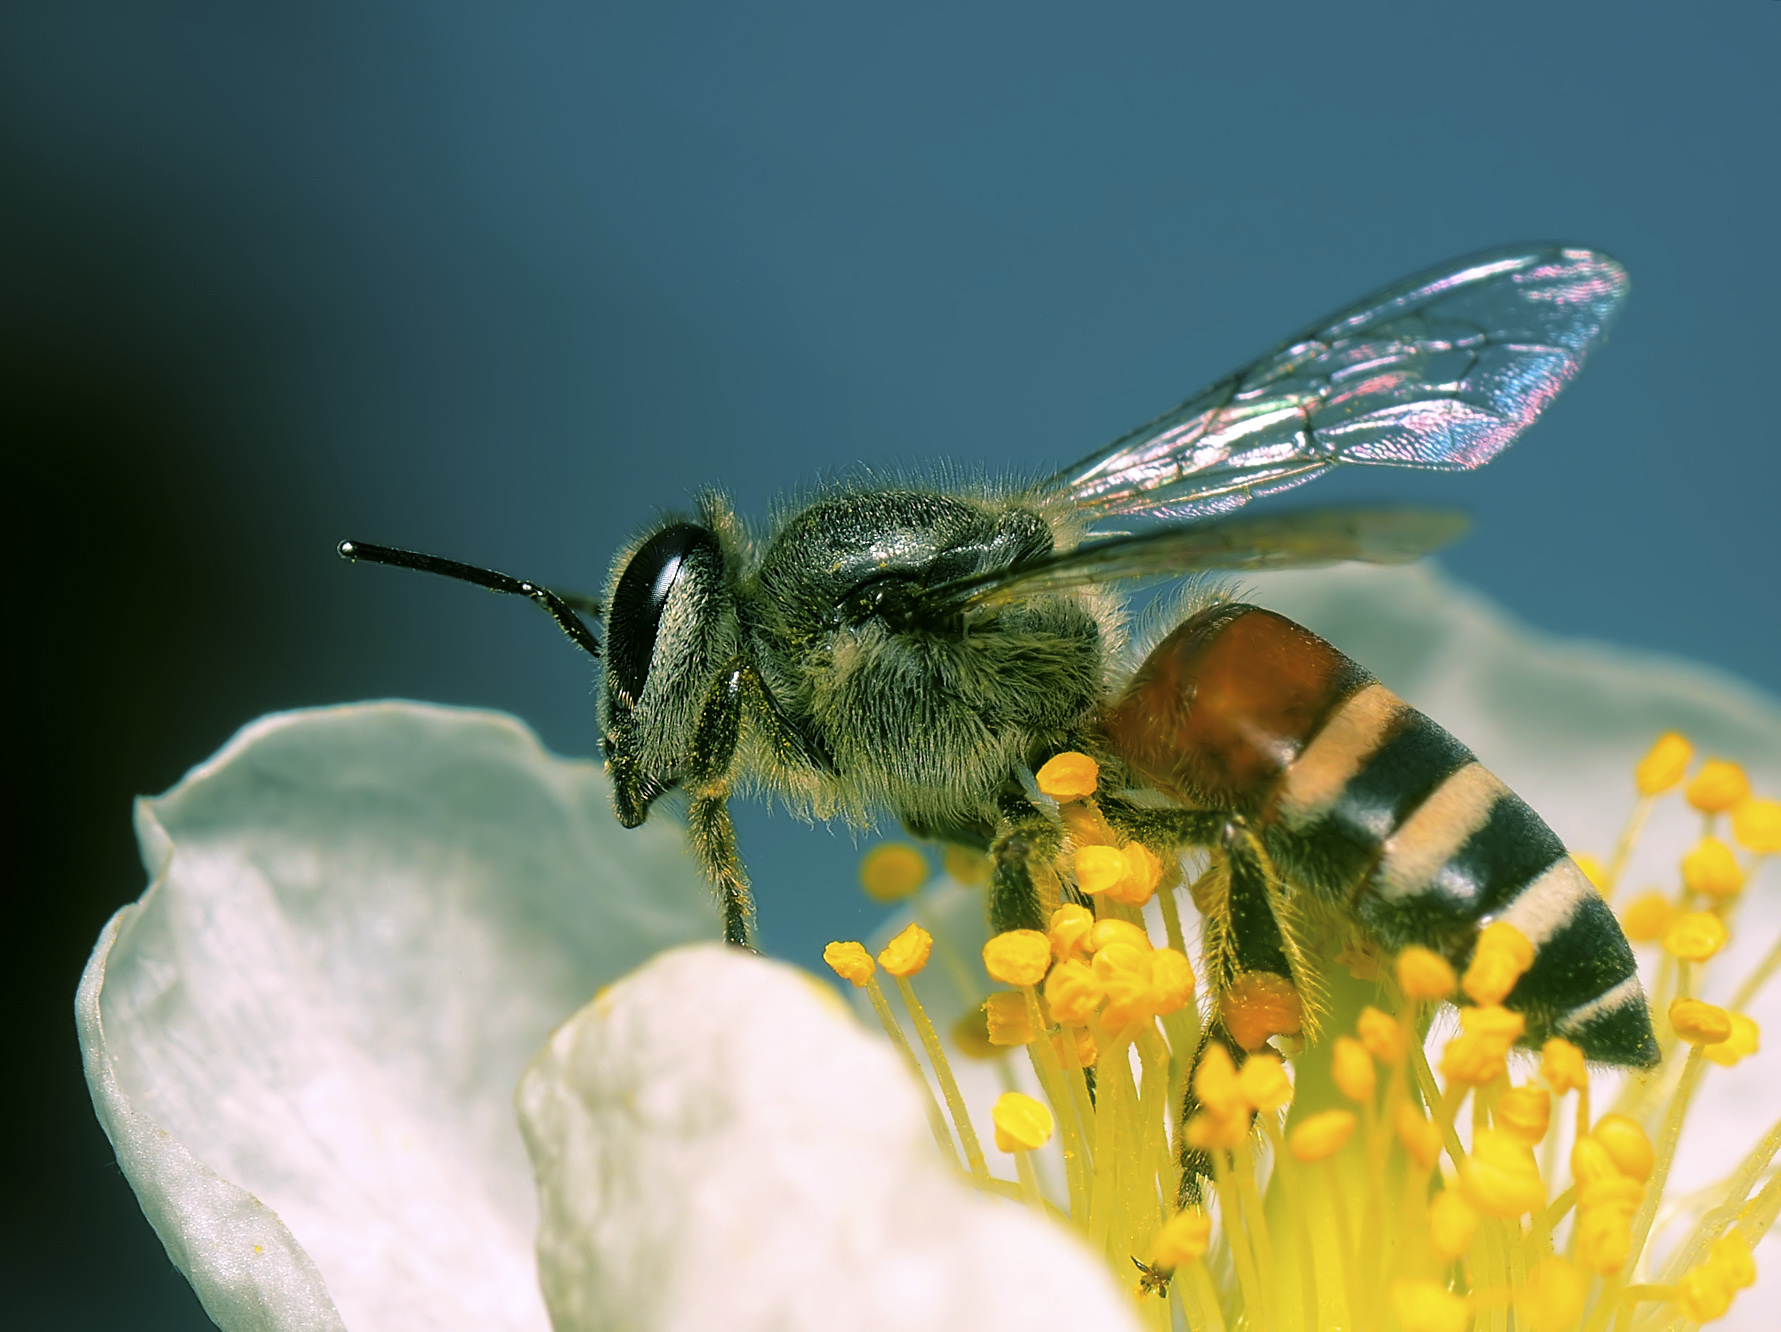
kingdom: Animalia
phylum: Arthropoda
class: Insecta
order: Hymenoptera
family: Apidae
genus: Apis
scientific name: Apis florea
